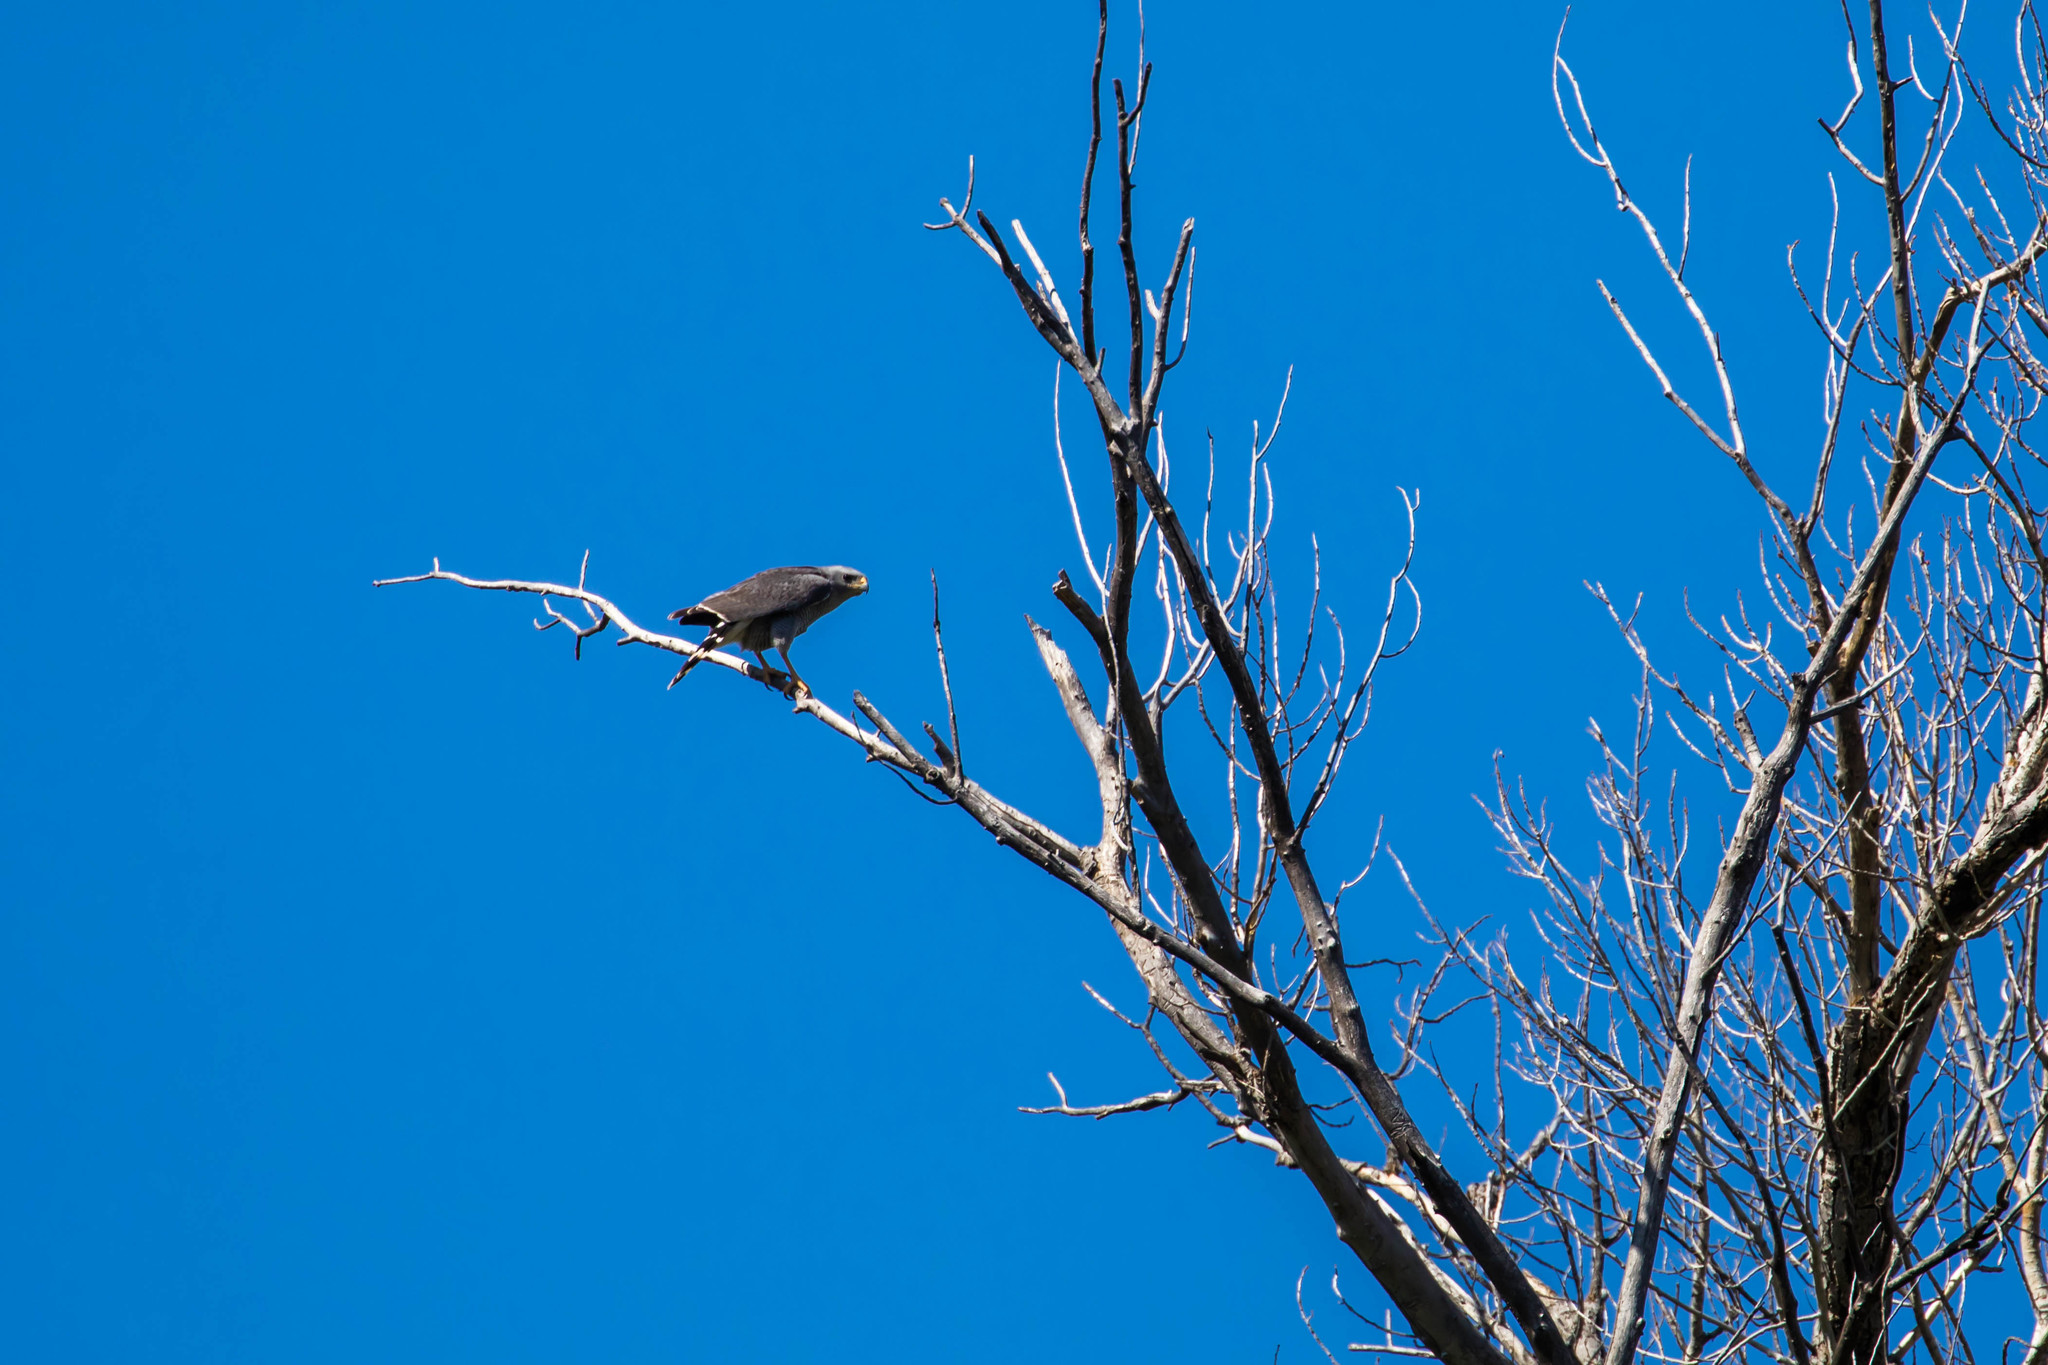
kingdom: Animalia
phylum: Chordata
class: Aves
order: Accipitriformes
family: Accipitridae
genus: Buteo
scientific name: Buteo nitidus
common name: Grey-lined hawk
